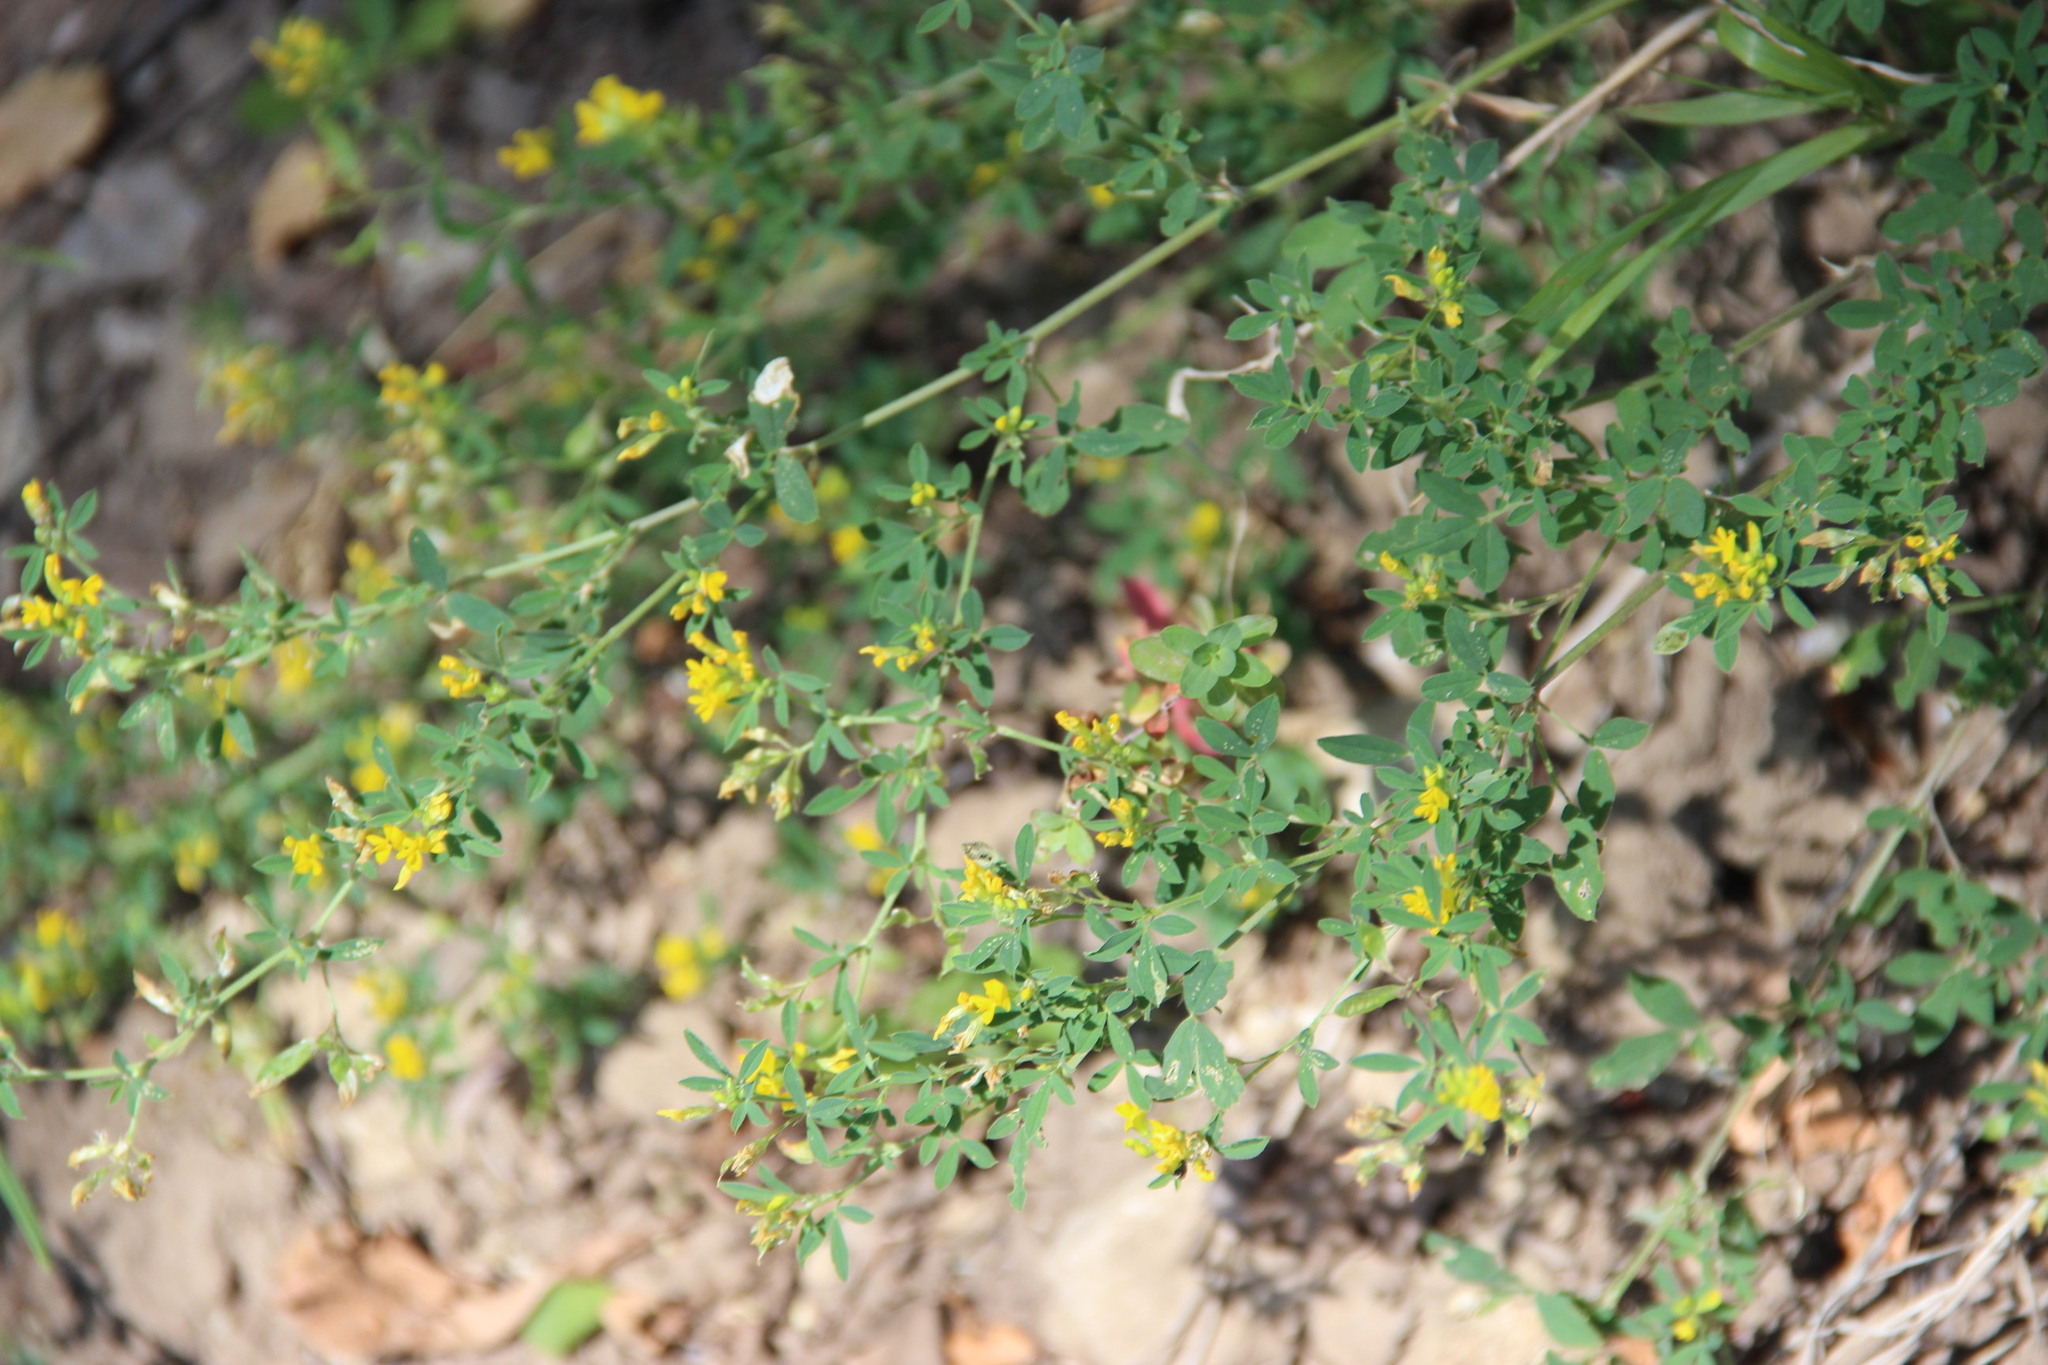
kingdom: Plantae
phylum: Tracheophyta
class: Magnoliopsida
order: Fabales
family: Fabaceae
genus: Medicago
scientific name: Medicago falcata
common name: Sickle medick
